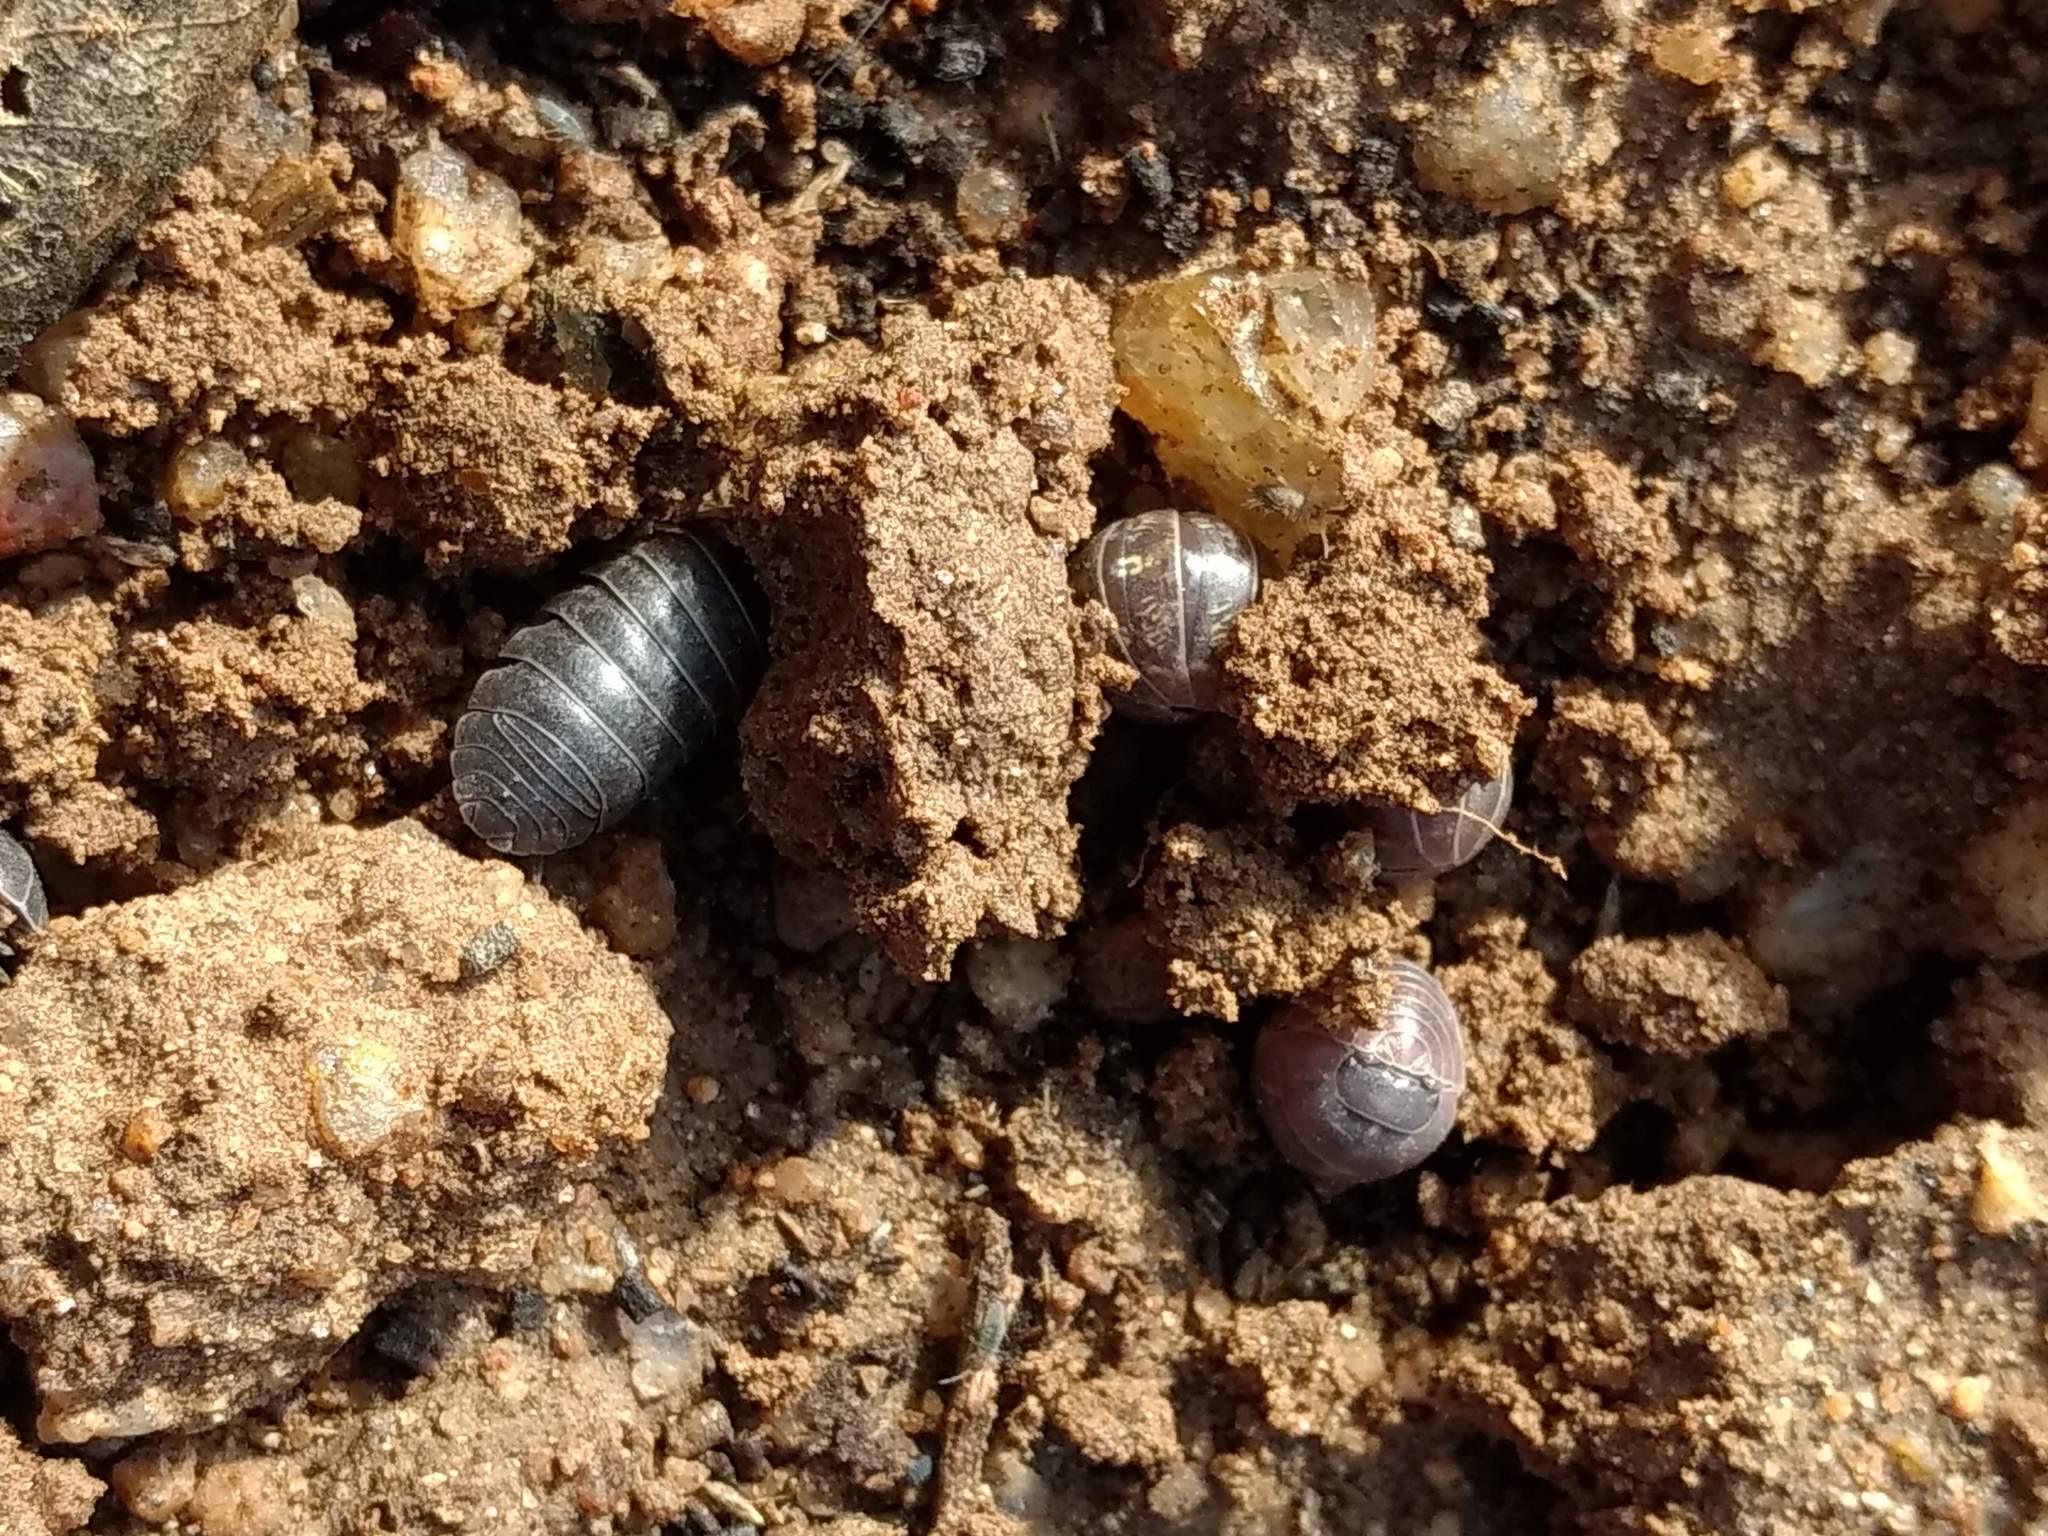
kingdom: Animalia
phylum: Arthropoda
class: Malacostraca
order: Isopoda
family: Armadillidiidae
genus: Armadillidium
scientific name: Armadillidium vulgare
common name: Common pill woodlouse
